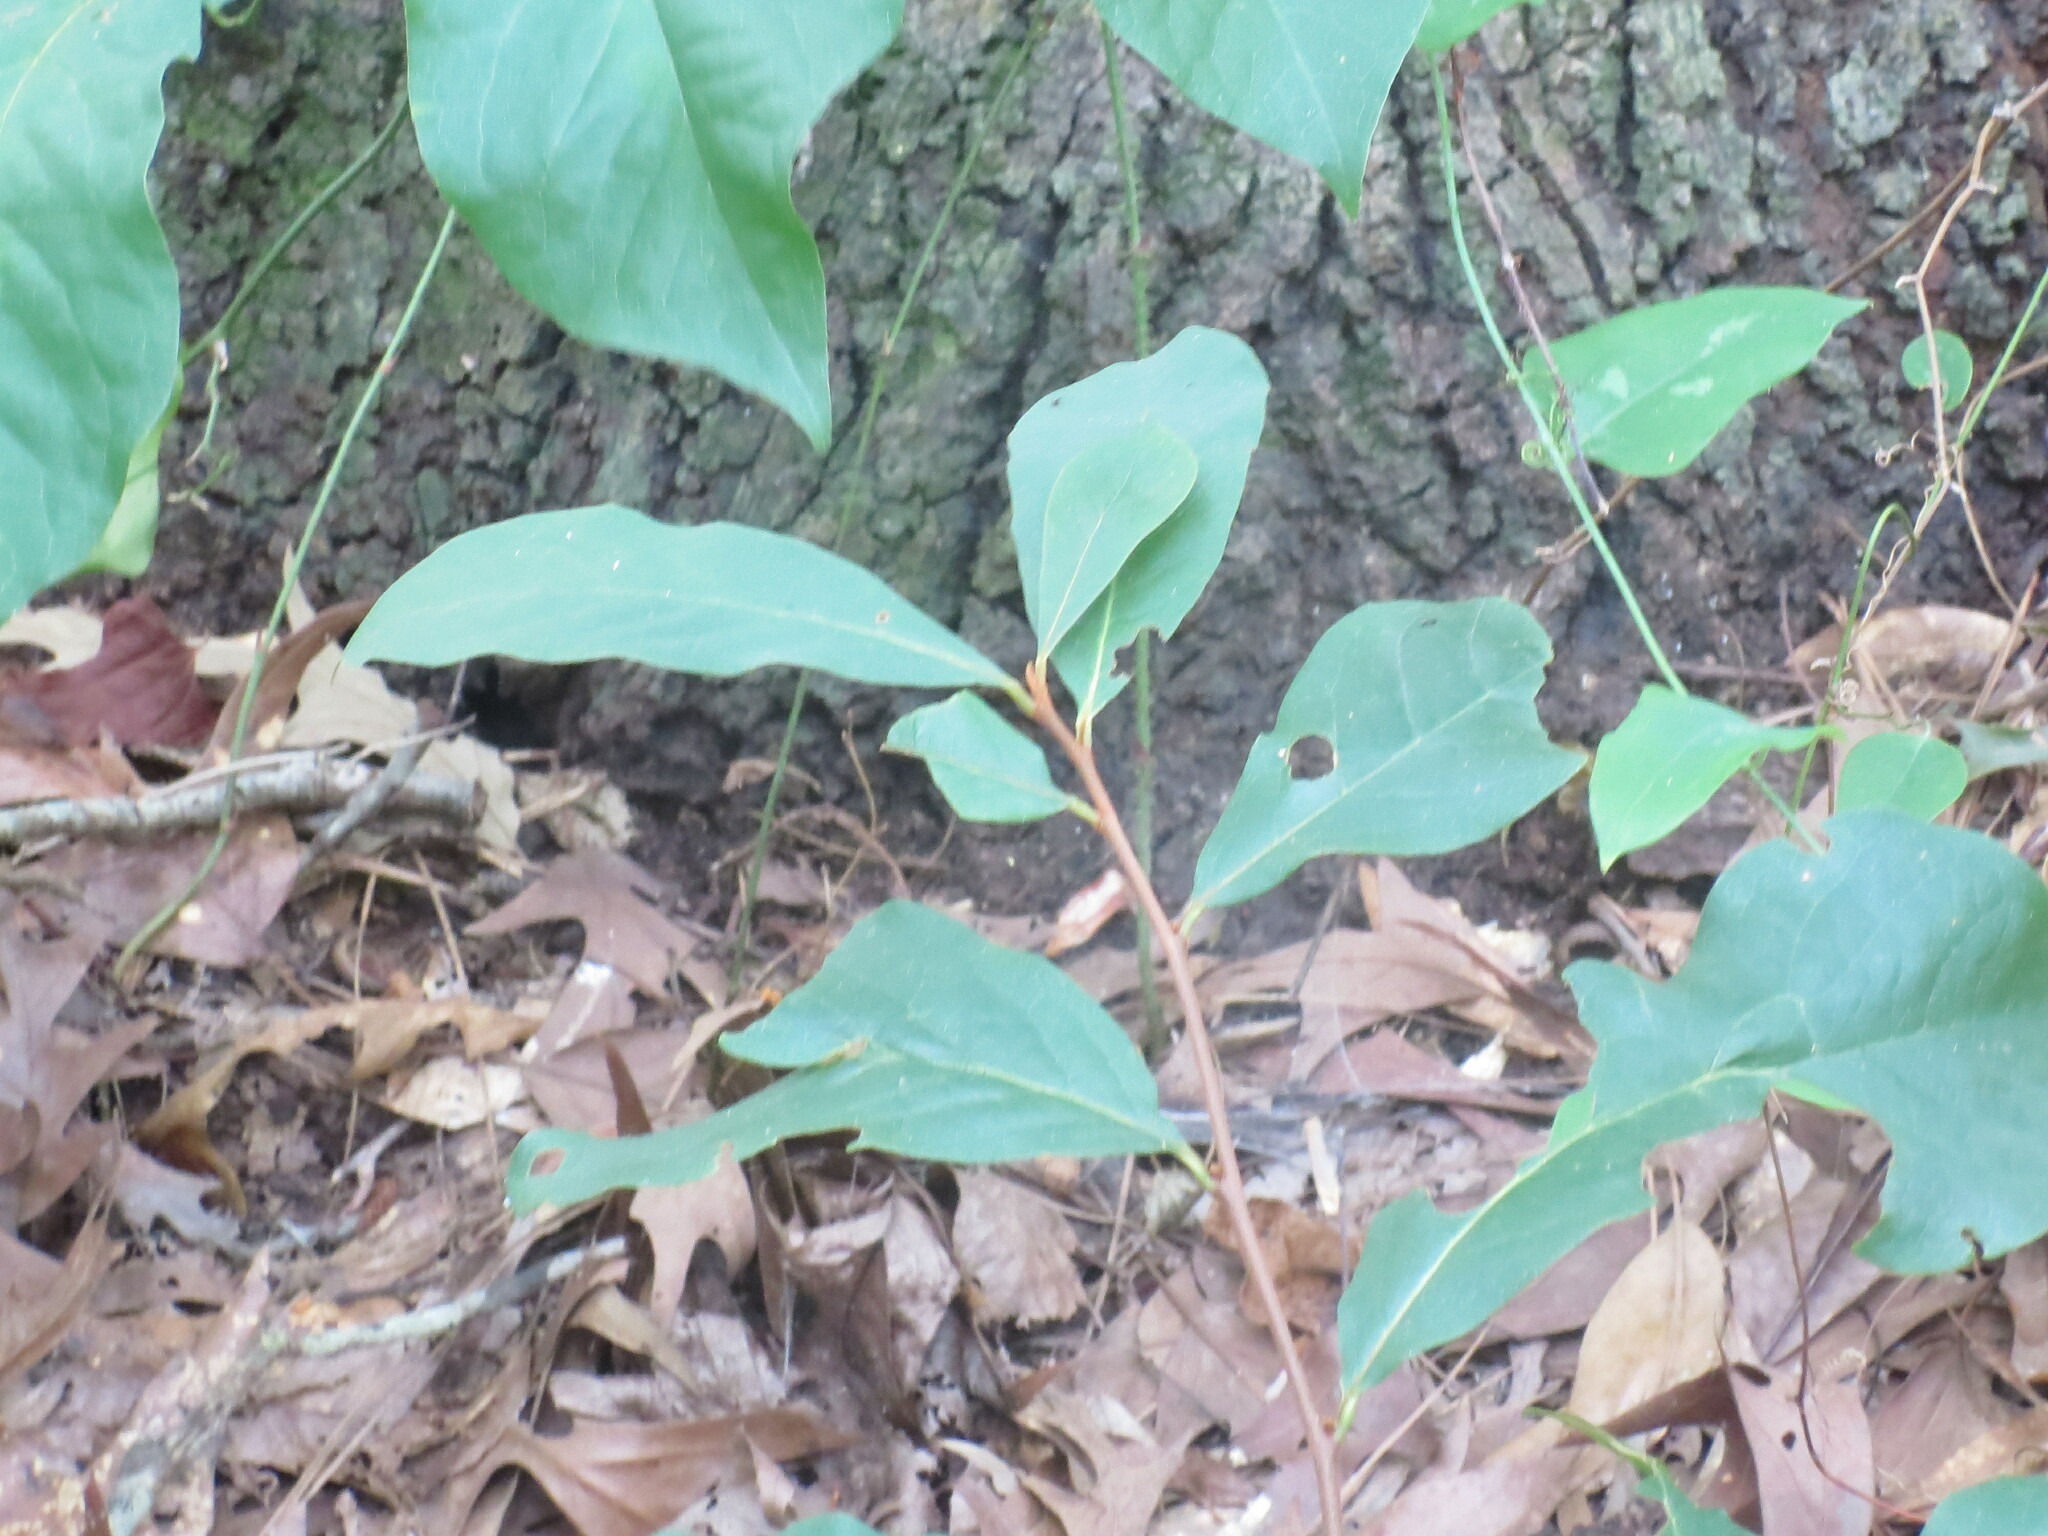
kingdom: Plantae
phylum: Tracheophyta
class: Magnoliopsida
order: Magnoliales
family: Annonaceae
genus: Asimina
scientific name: Asimina parviflora
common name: Dwarf pawpaw
